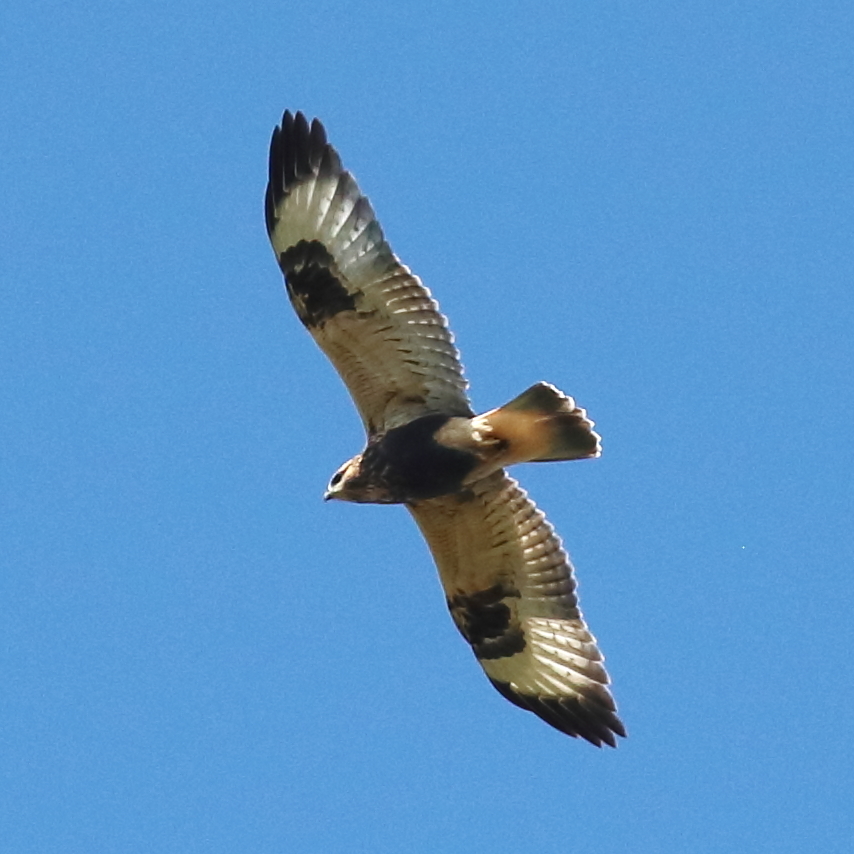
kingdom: Animalia
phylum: Chordata
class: Aves
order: Accipitriformes
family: Accipitridae
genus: Buteo
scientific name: Buteo lagopus
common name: Rough-legged buzzard
